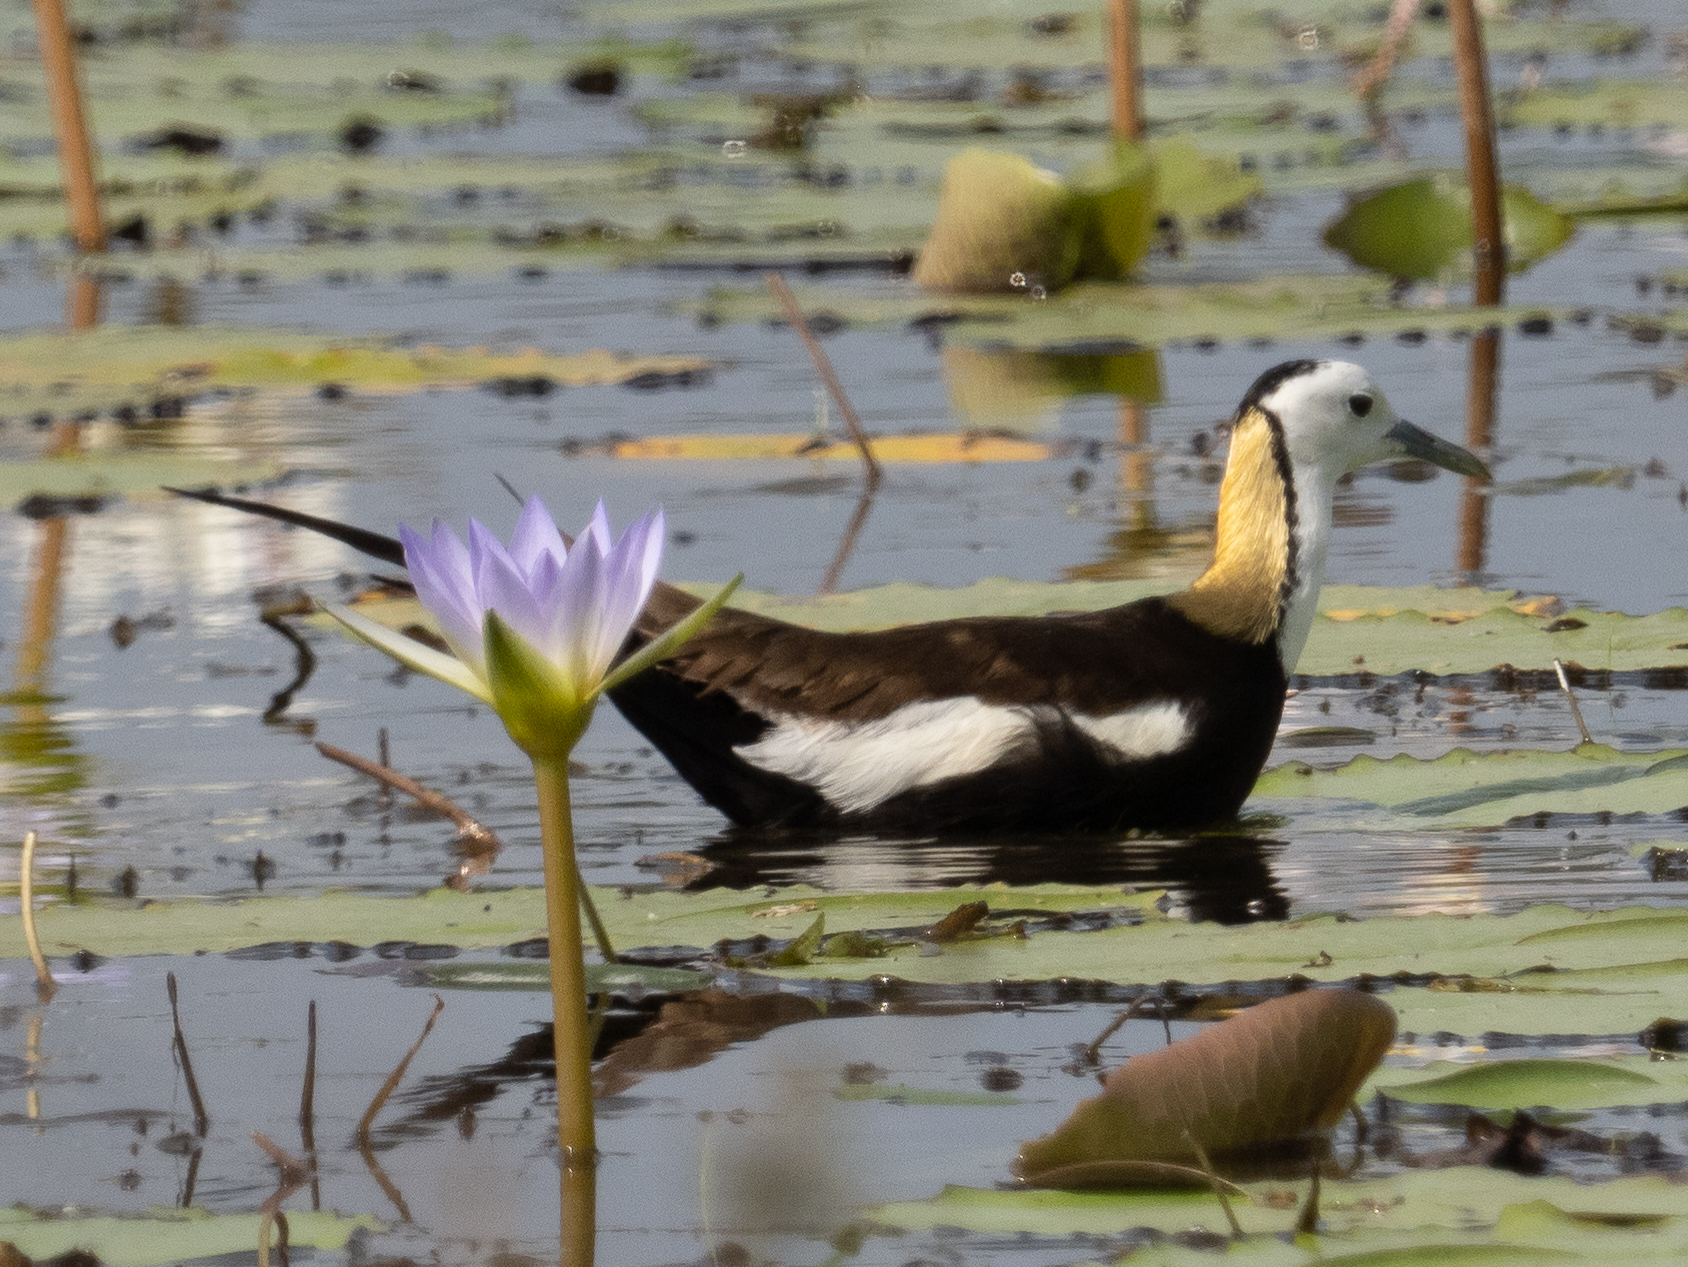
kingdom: Animalia
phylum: Chordata
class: Aves
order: Charadriiformes
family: Jacanidae
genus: Hydrophasianus
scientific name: Hydrophasianus chirurgus
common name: Pheasant-tailed jacana
